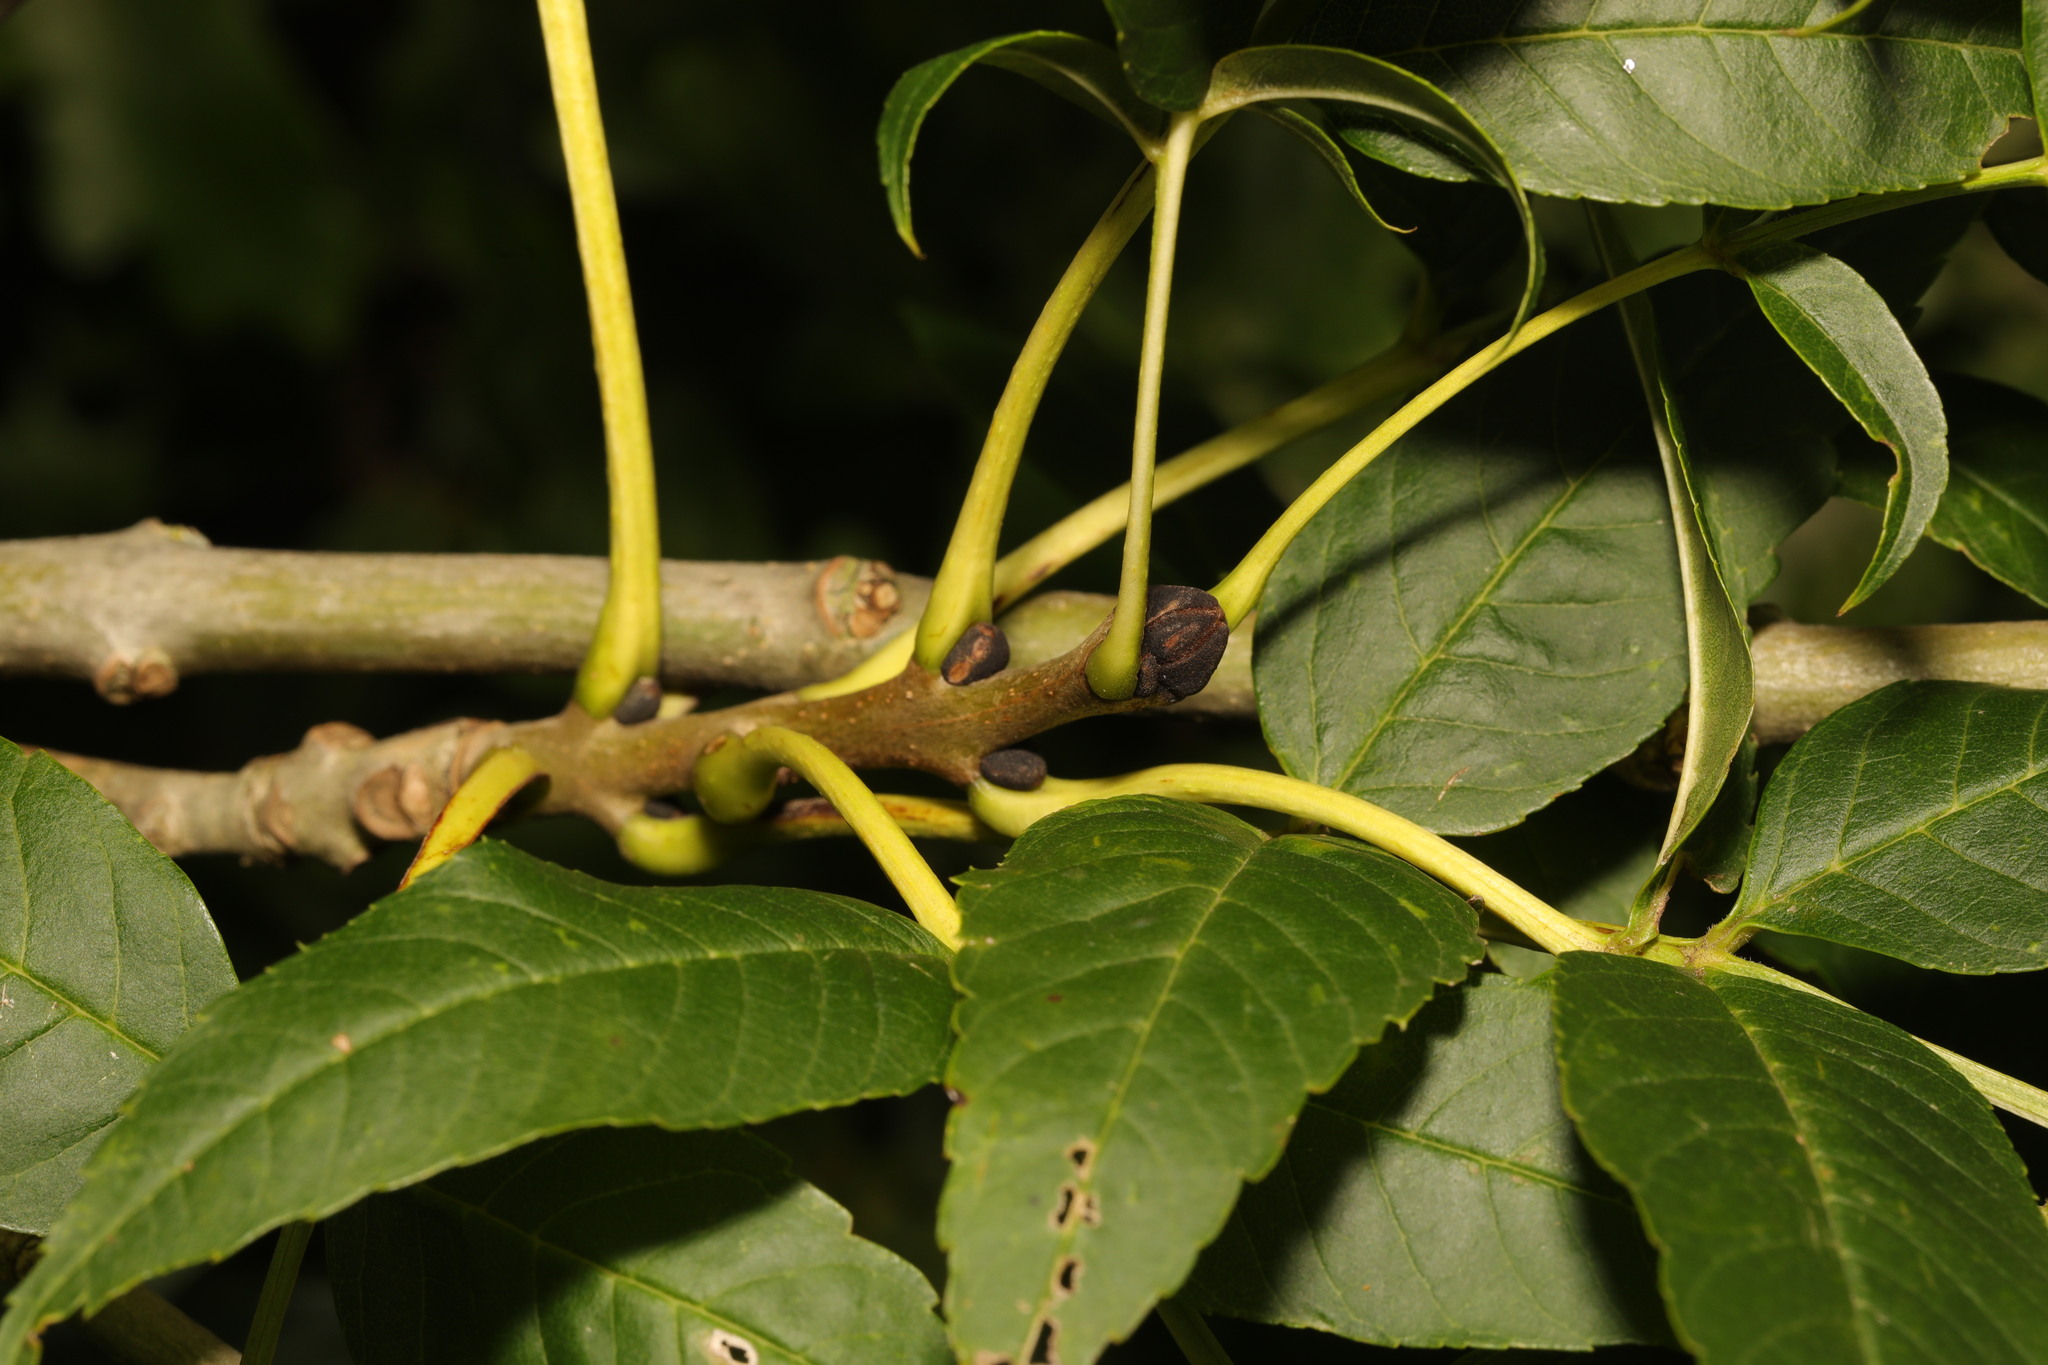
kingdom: Plantae
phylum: Tracheophyta
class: Magnoliopsida
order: Lamiales
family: Oleaceae
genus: Fraxinus
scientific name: Fraxinus excelsior
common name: European ash
